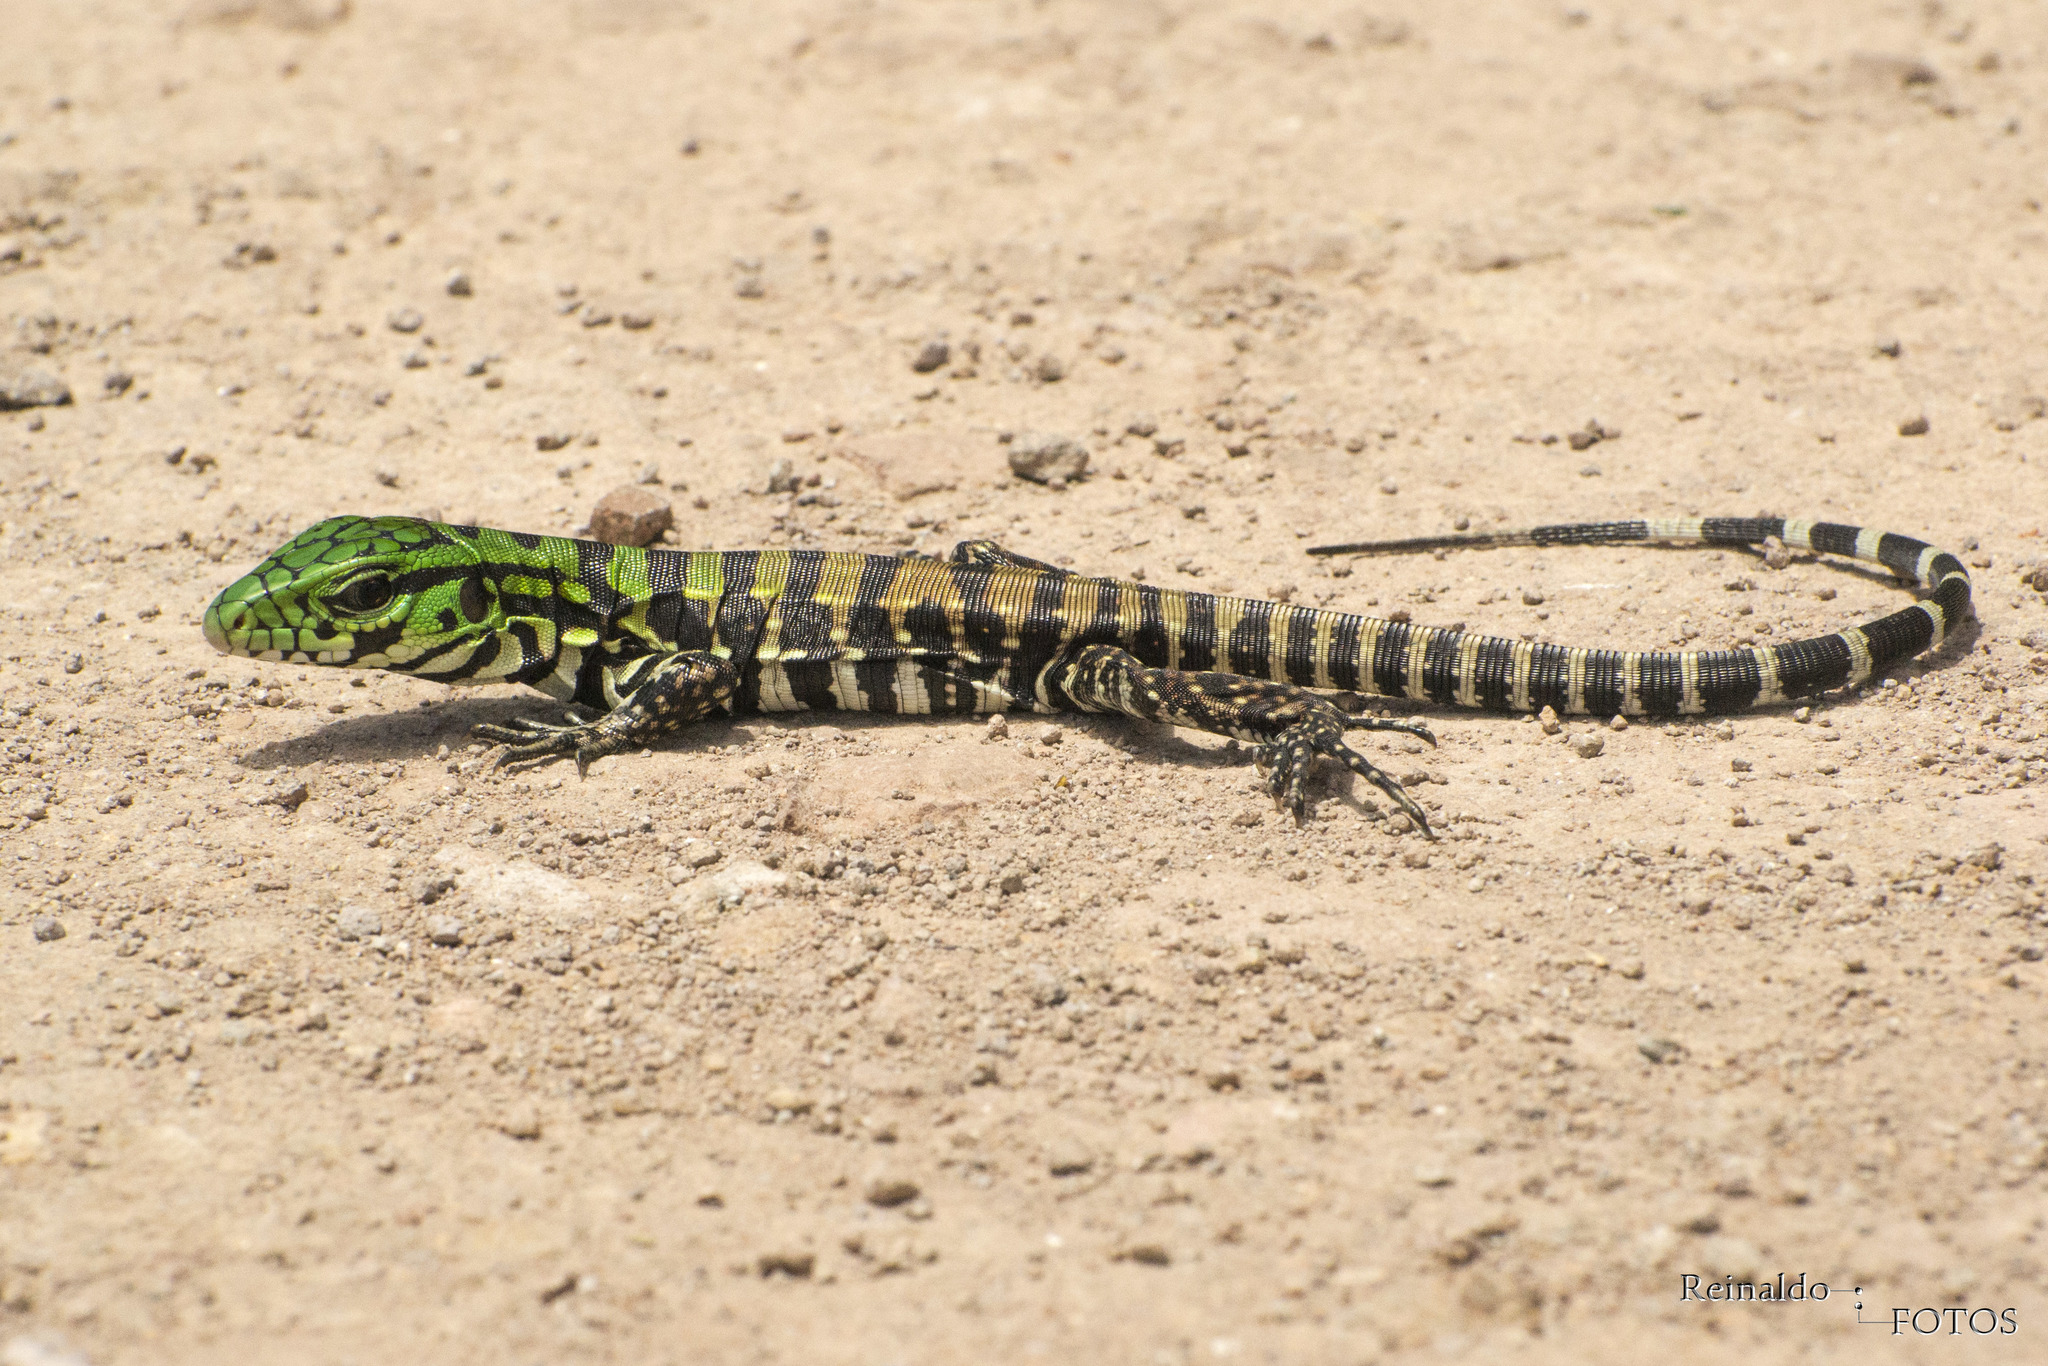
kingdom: Animalia
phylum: Chordata
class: Squamata
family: Teiidae
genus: Salvator
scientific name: Salvator merianae
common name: Argentine black and white tegu
